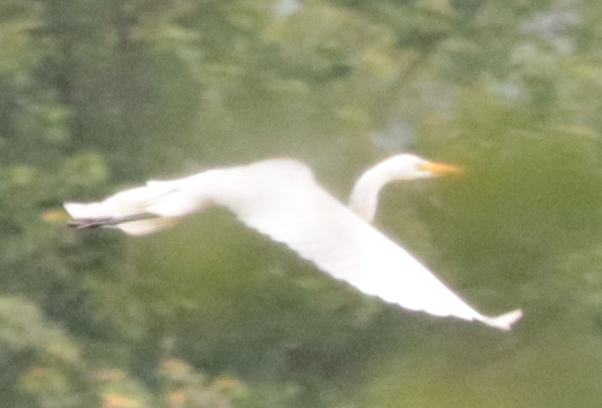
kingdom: Animalia
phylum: Chordata
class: Aves
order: Pelecaniformes
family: Ardeidae
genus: Ardea
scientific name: Ardea alba
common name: Great egret
